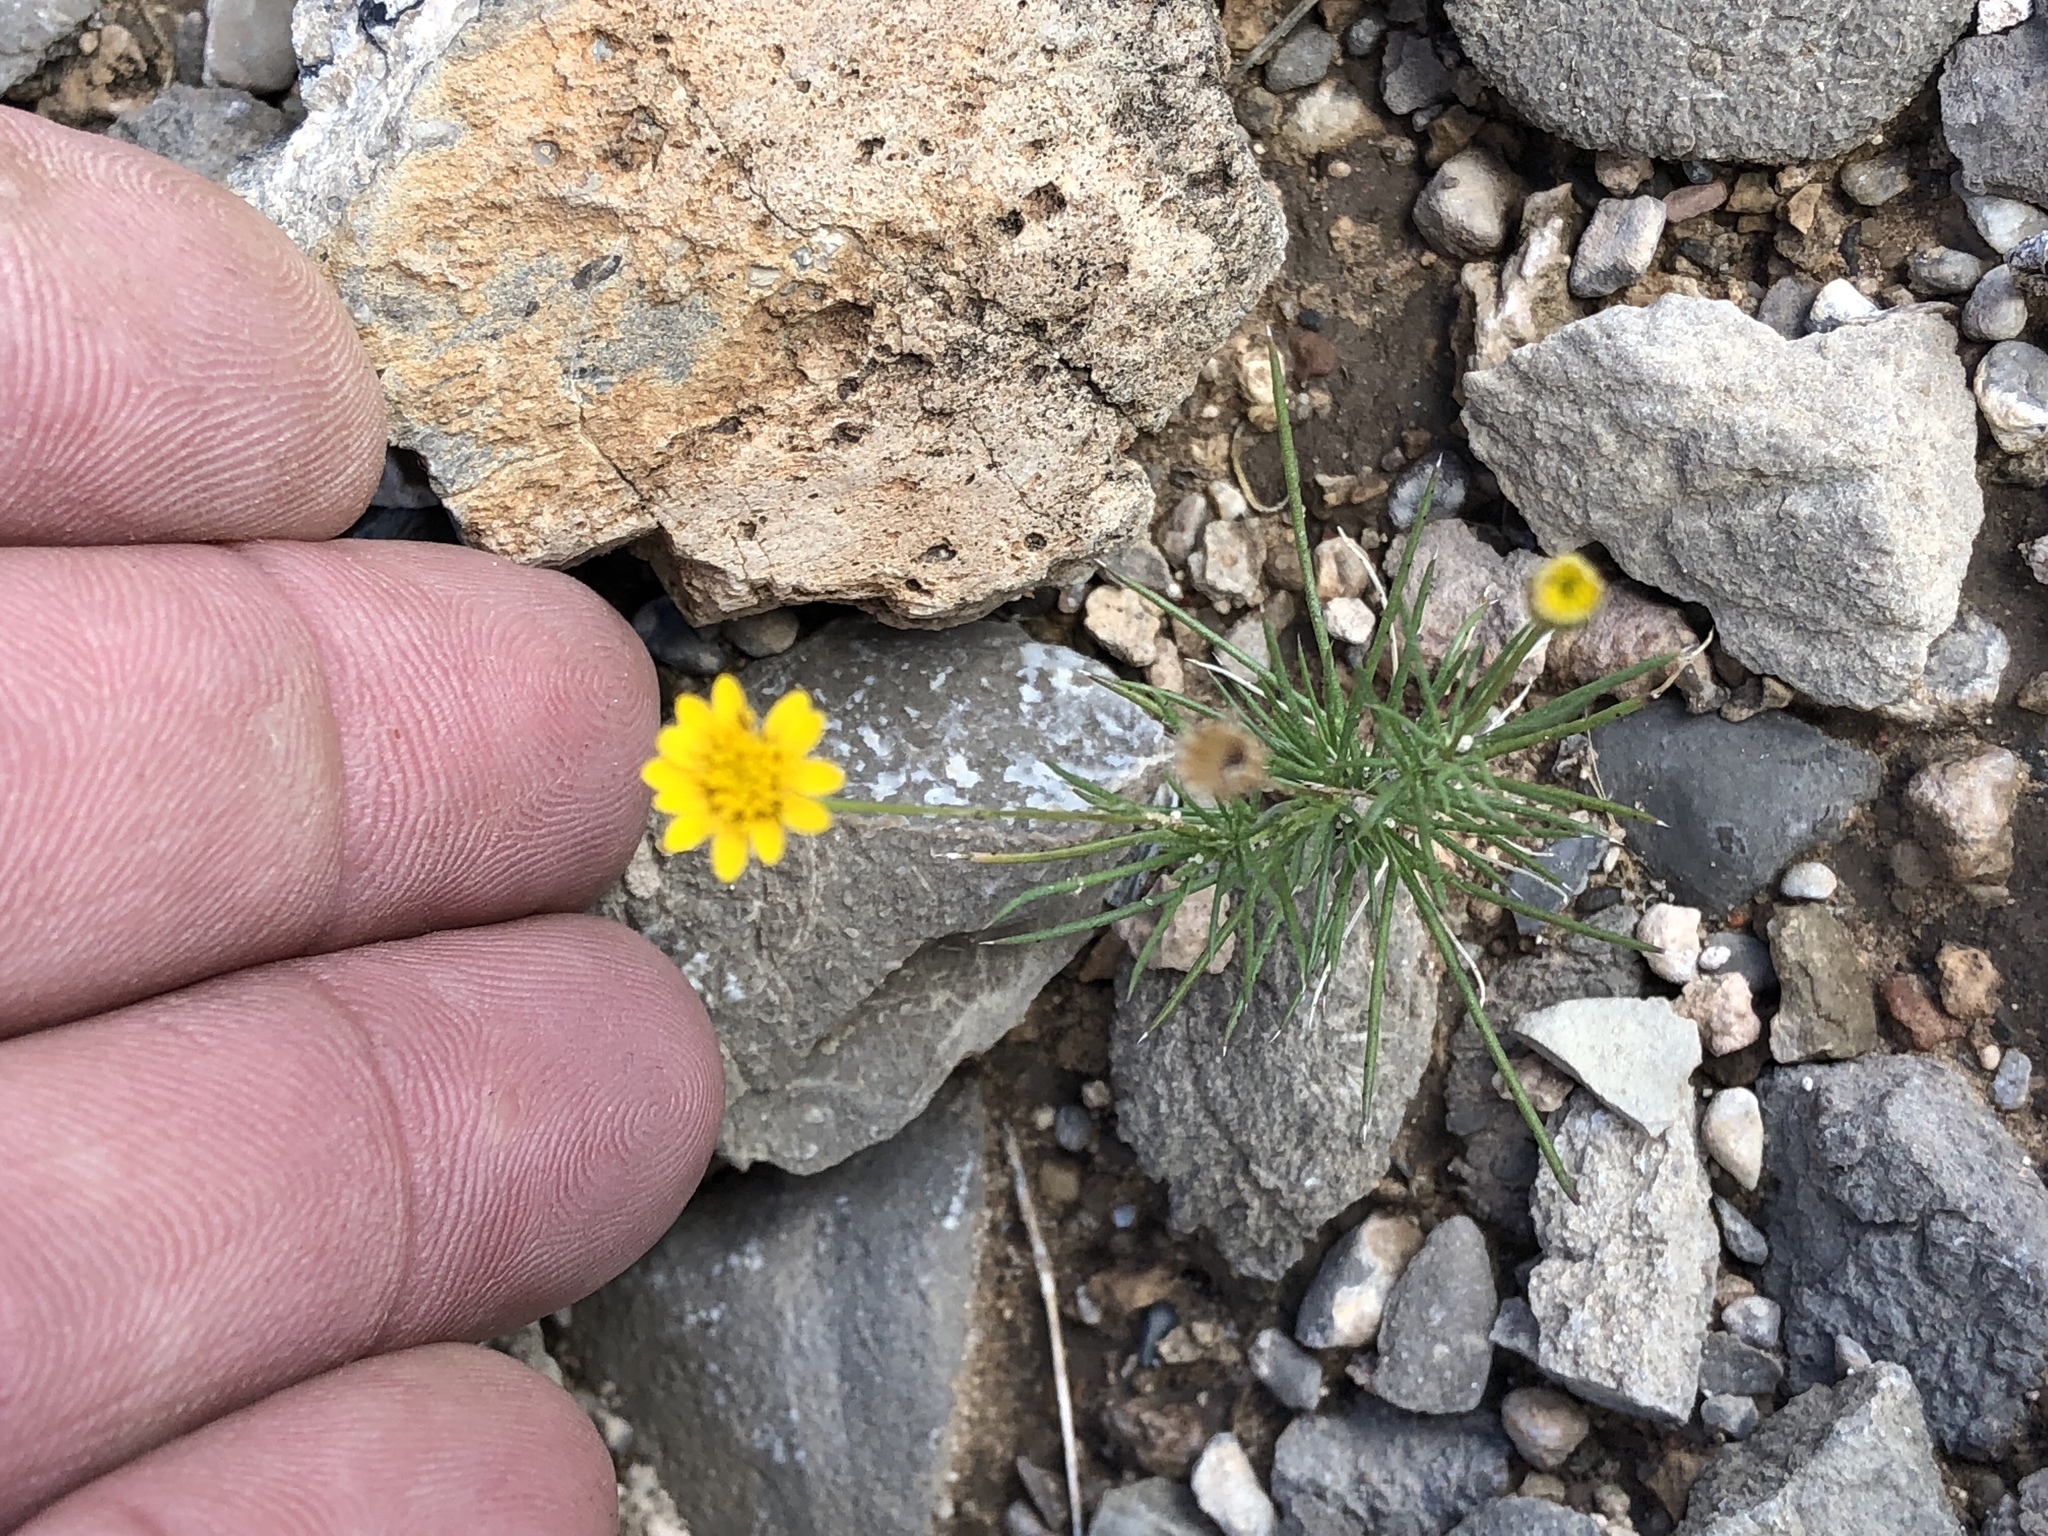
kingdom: Plantae
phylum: Tracheophyta
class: Magnoliopsida
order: Asterales
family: Asteraceae
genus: Thymophylla
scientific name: Thymophylla pentachaeta
